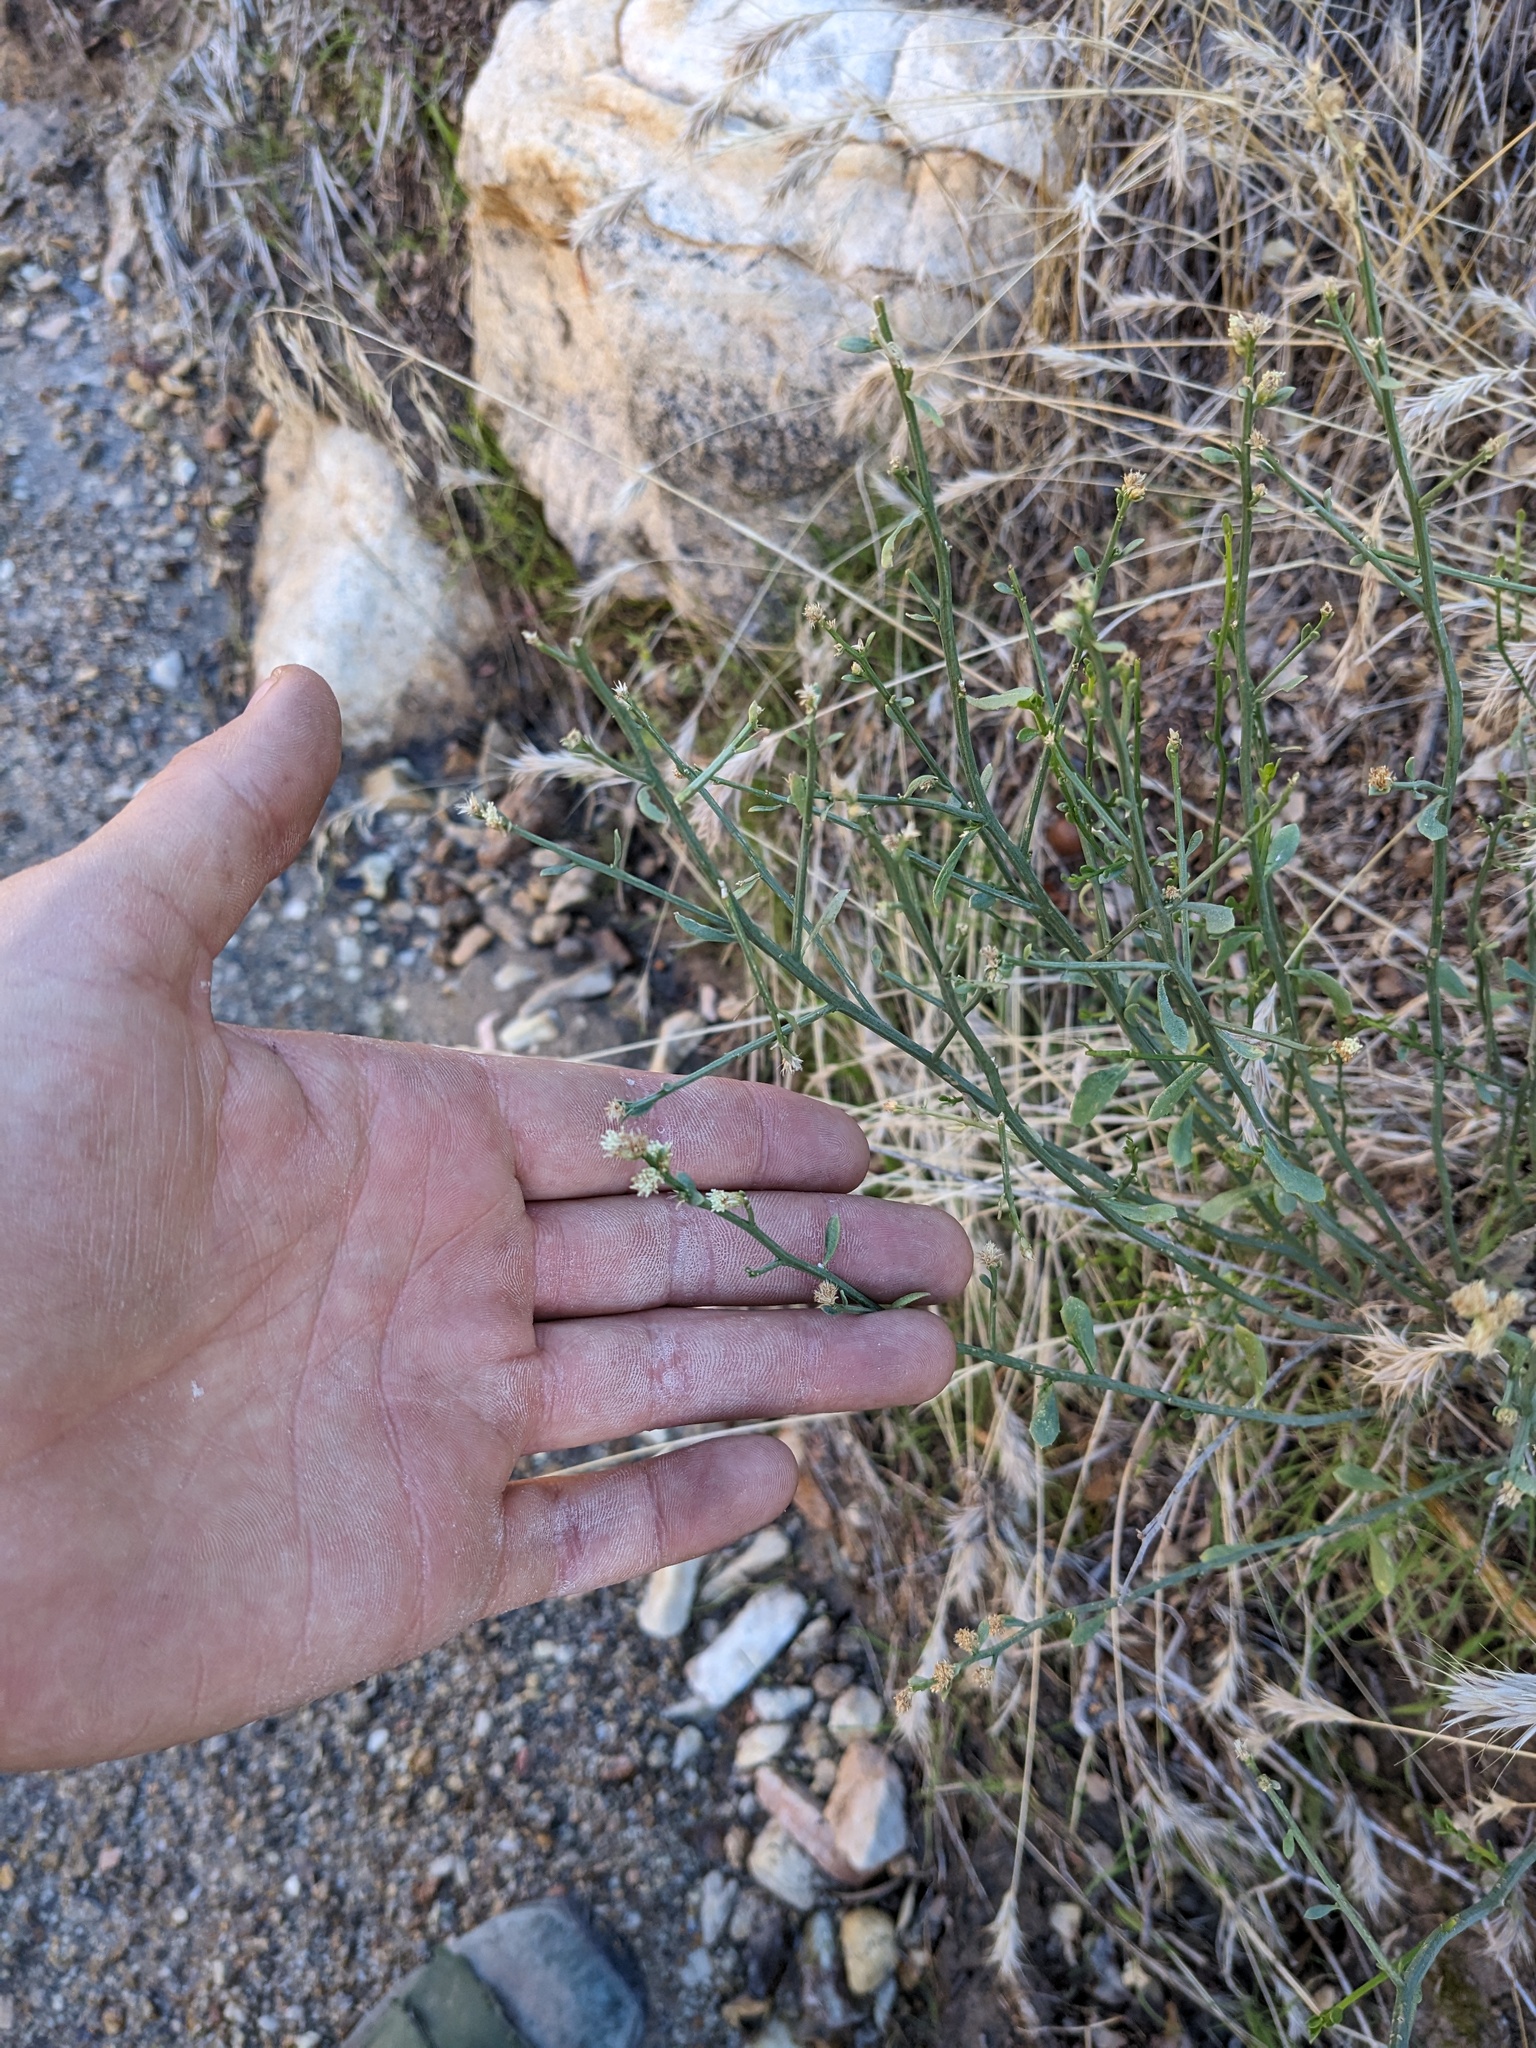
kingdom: Plantae
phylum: Tracheophyta
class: Magnoliopsida
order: Asterales
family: Asteraceae
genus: Baccharis
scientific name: Baccharis sergiloides
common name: Desert baccharis
